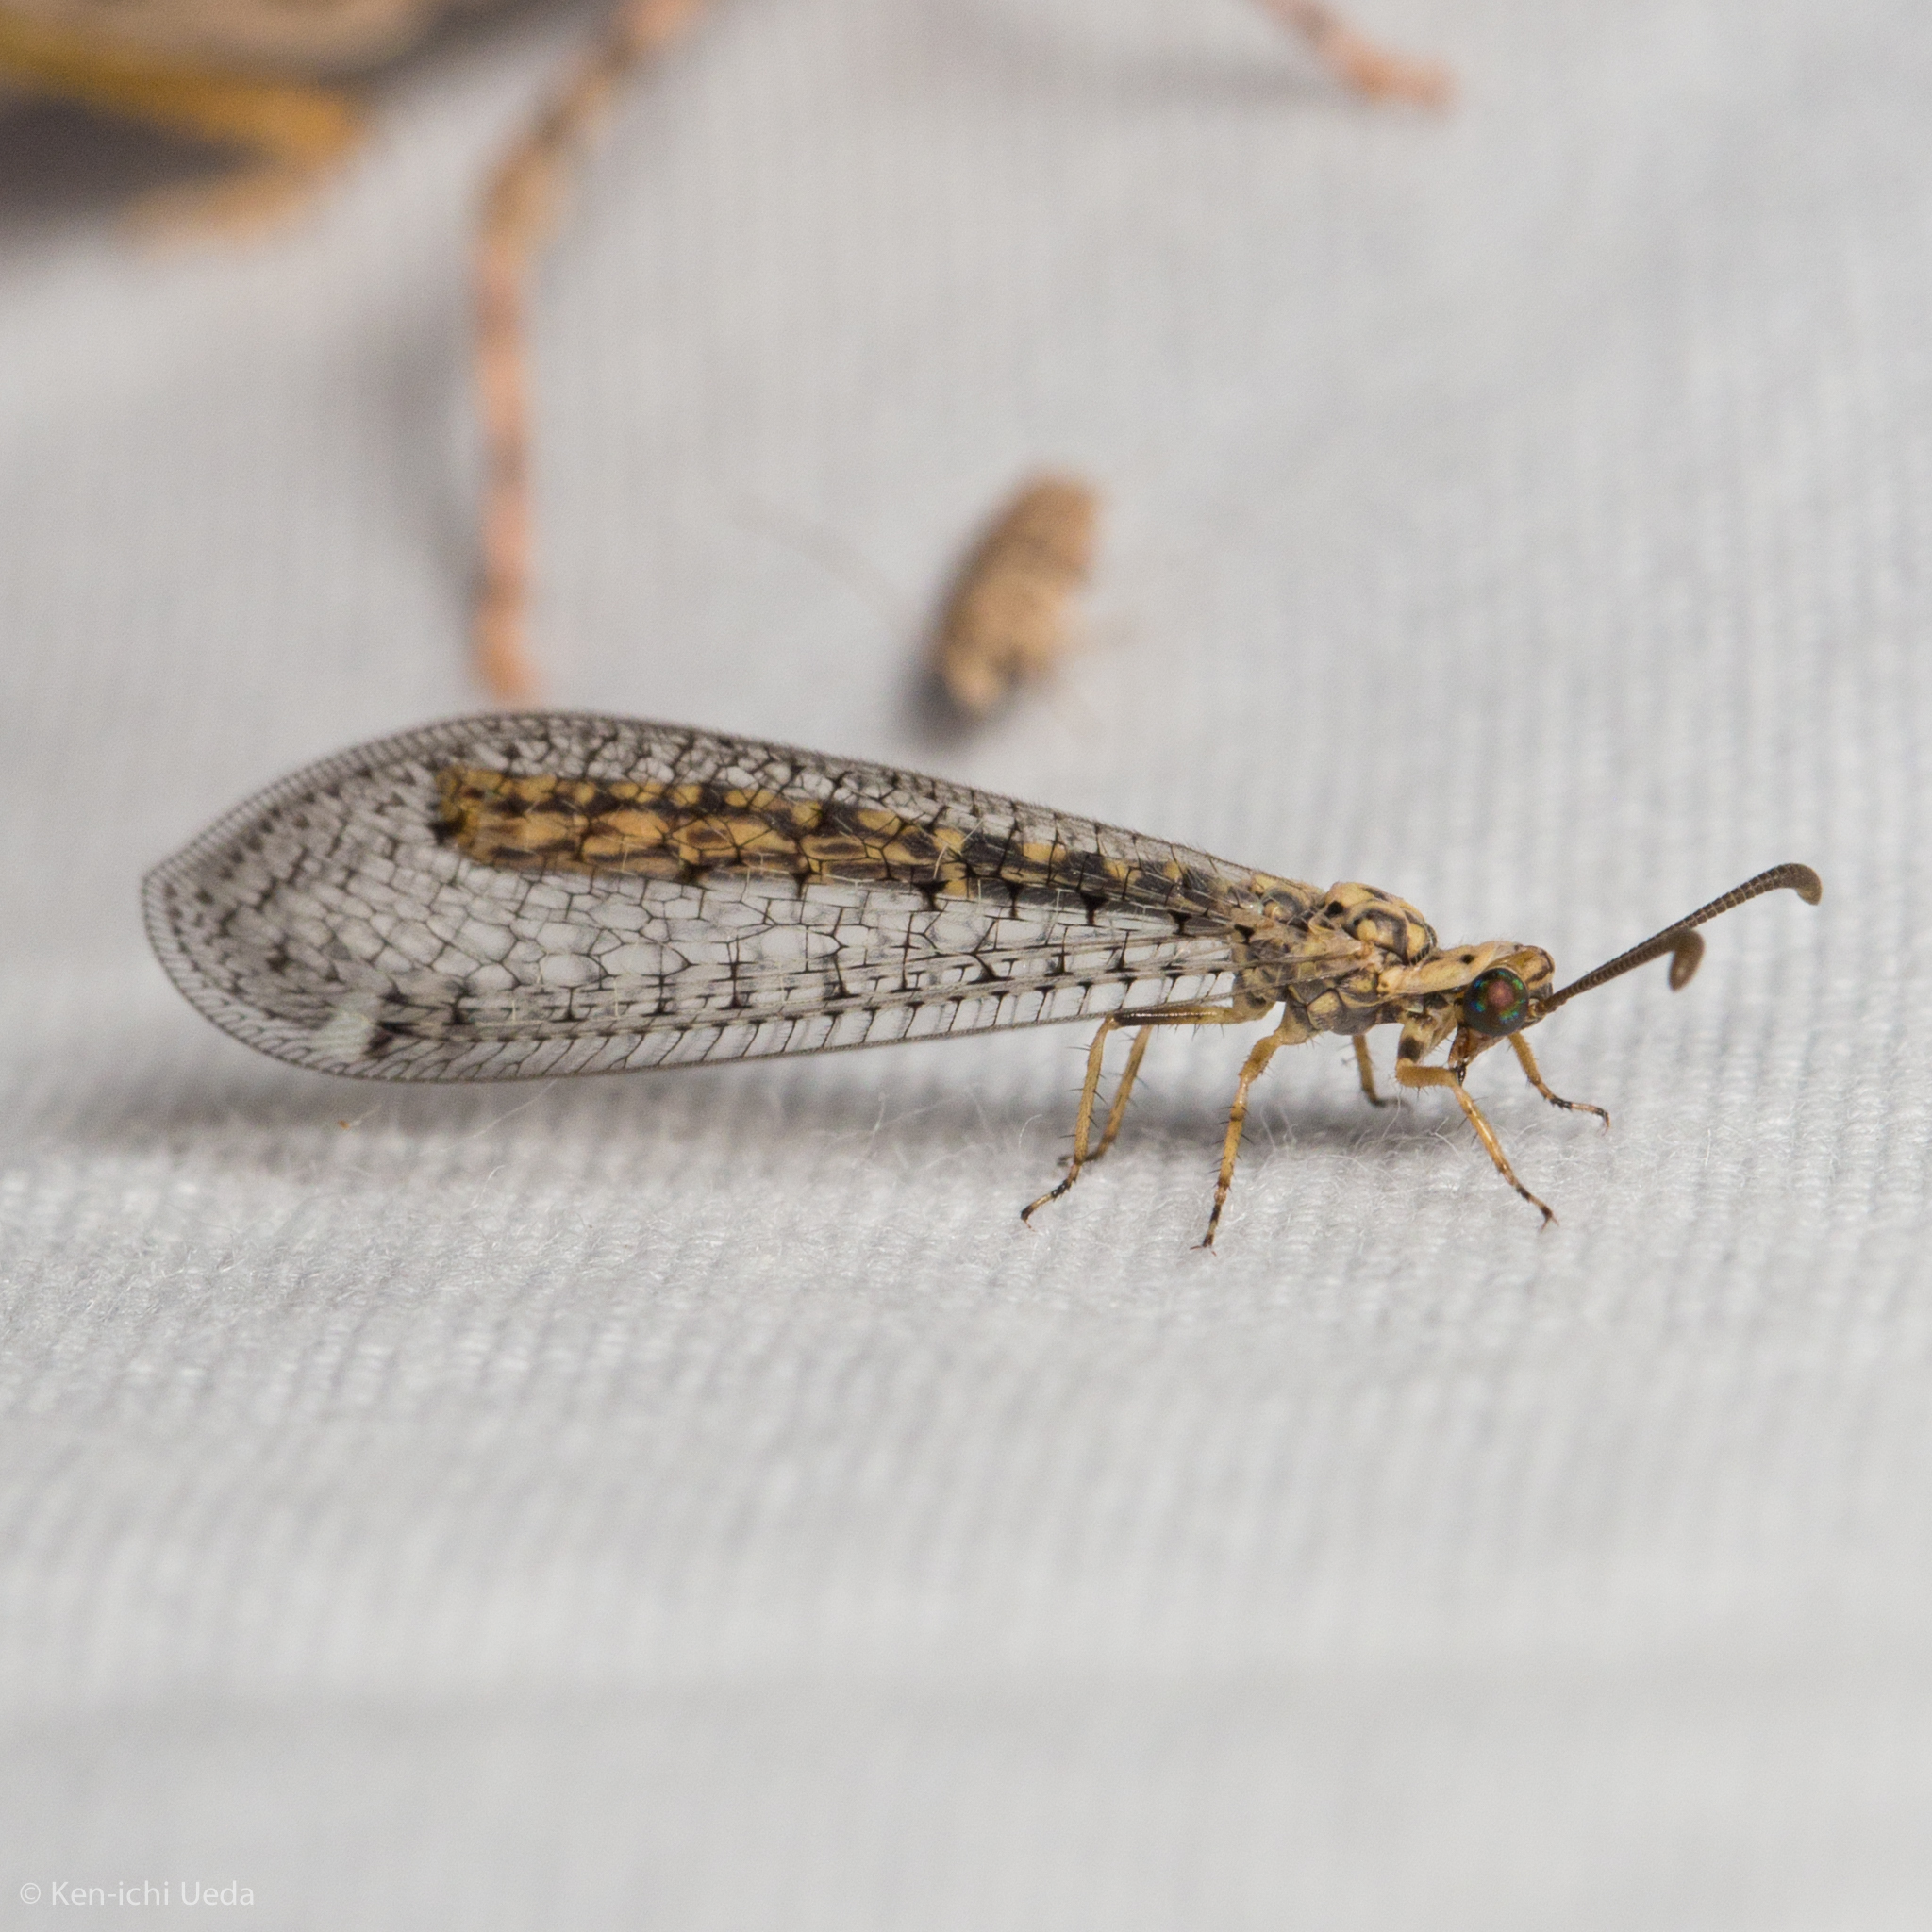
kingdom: Animalia
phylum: Arthropoda
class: Insecta
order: Neuroptera
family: Myrmeleontidae
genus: Scotoleon
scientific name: Scotoleon expansus
